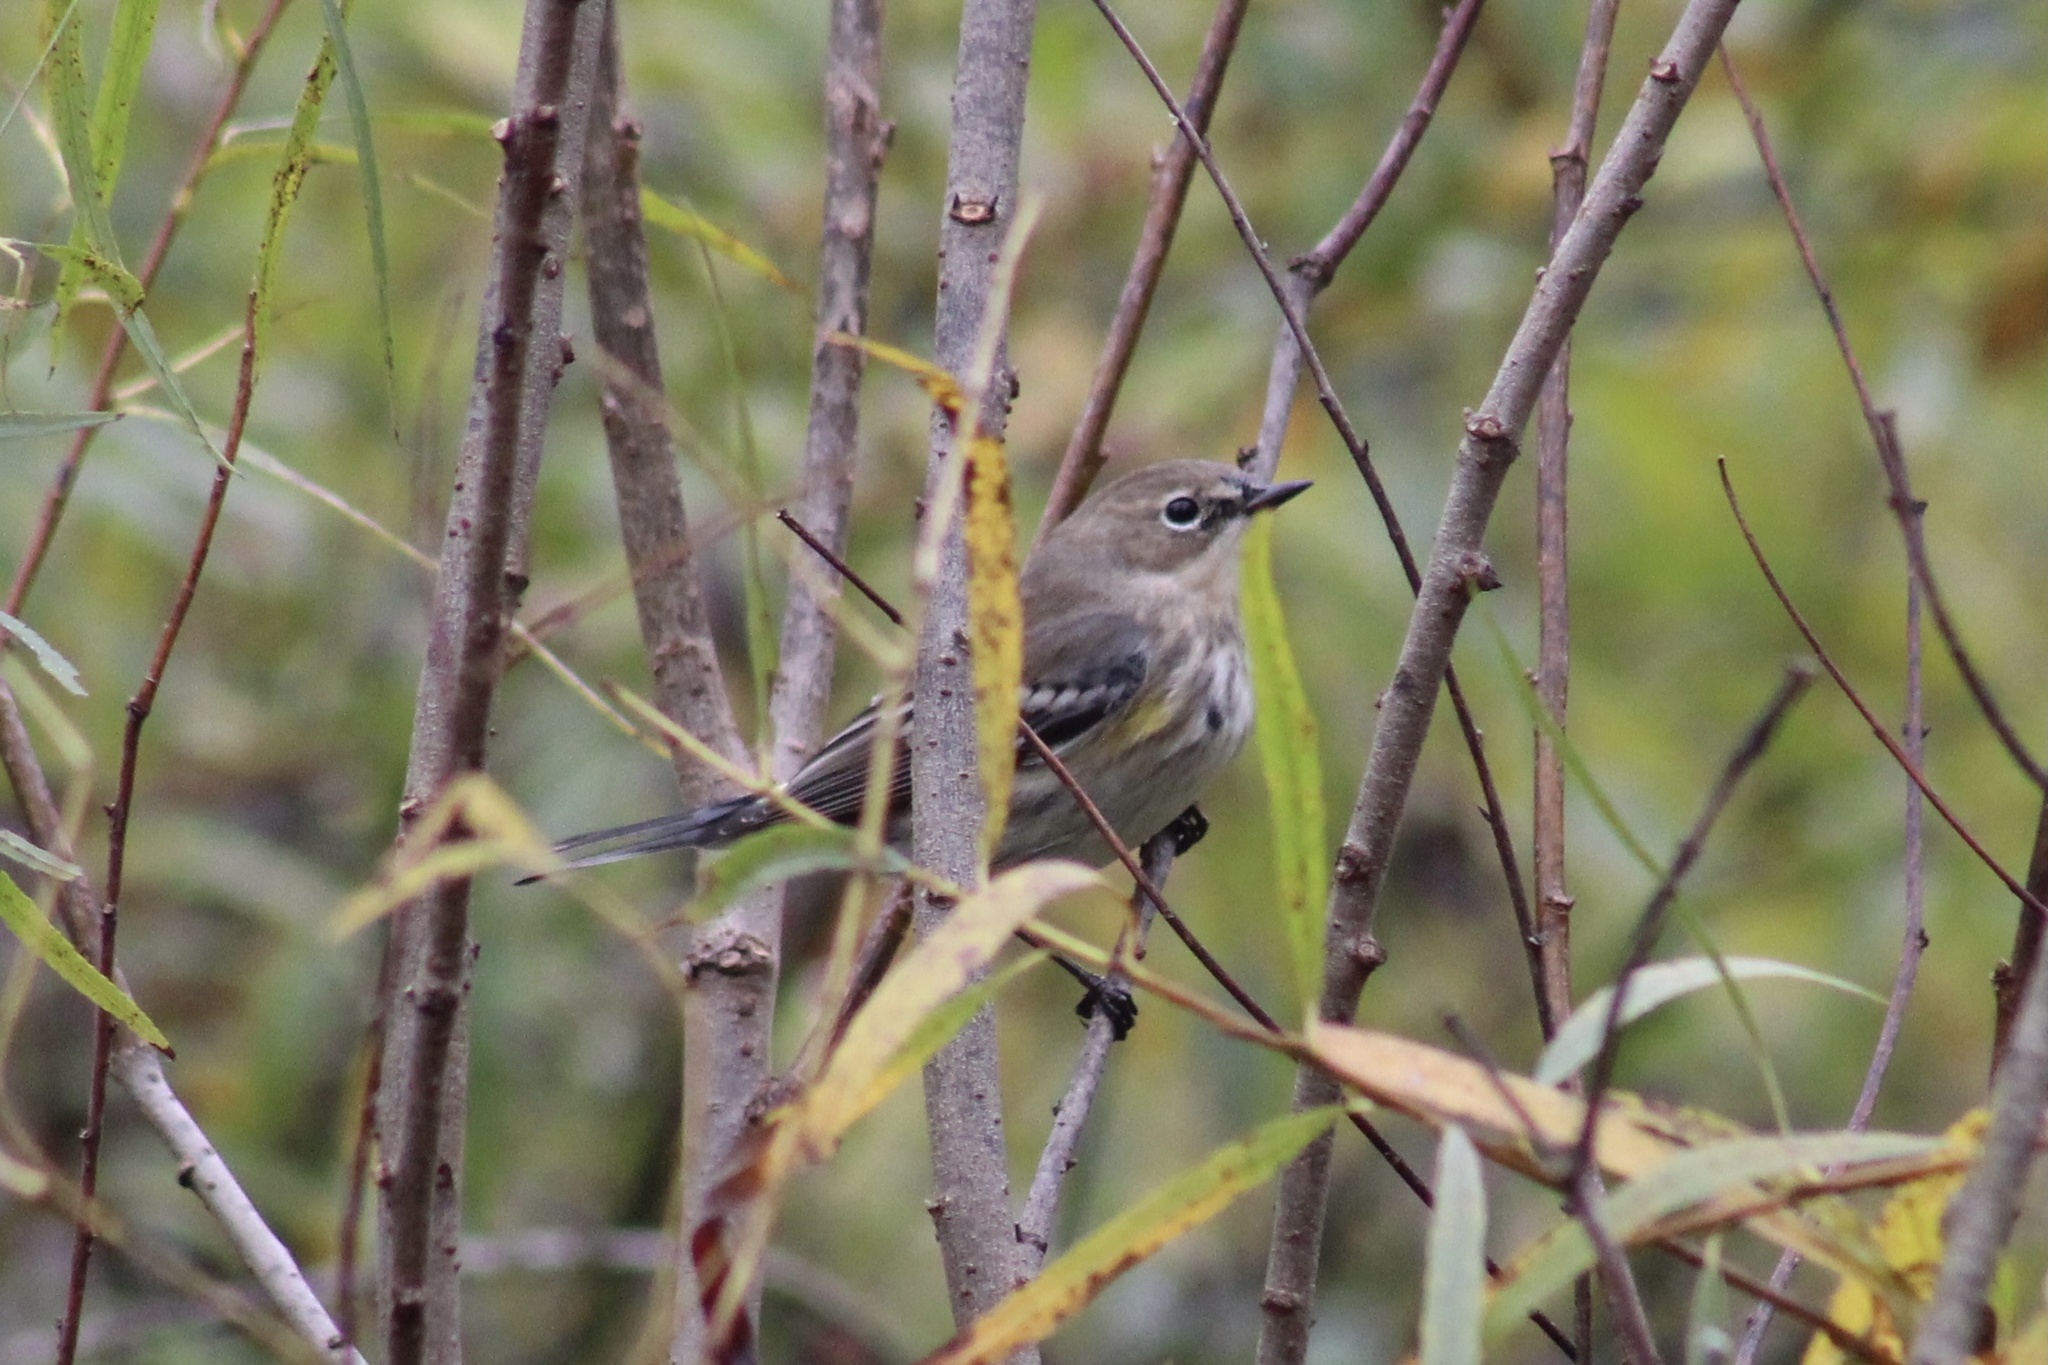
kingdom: Animalia
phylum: Chordata
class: Aves
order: Passeriformes
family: Parulidae
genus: Setophaga
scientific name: Setophaga coronata
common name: Myrtle warbler
